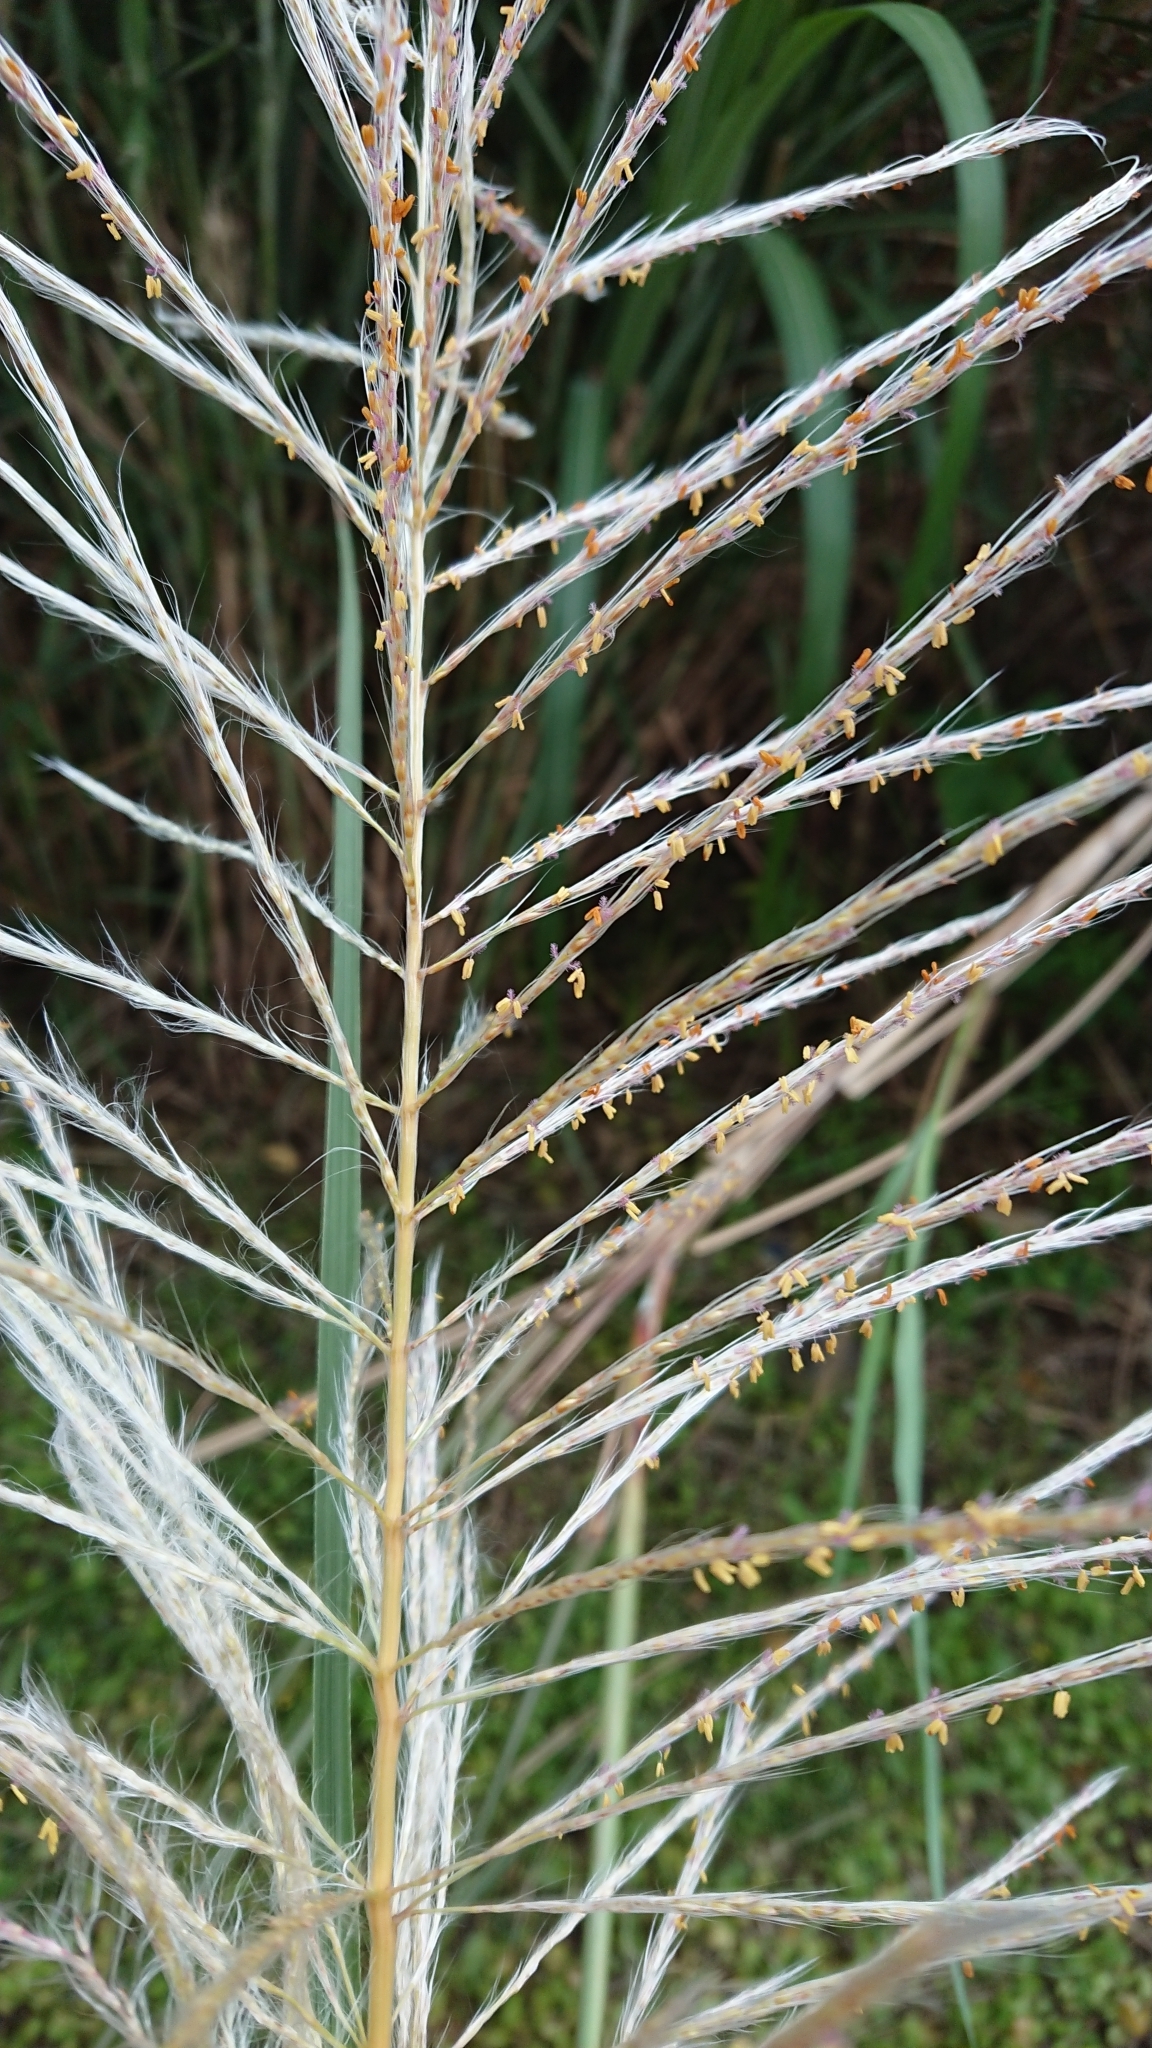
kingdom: Plantae
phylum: Tracheophyta
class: Liliopsida
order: Poales
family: Poaceae
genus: Saccharum
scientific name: Saccharum spontaneum
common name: Wild sugarcane
